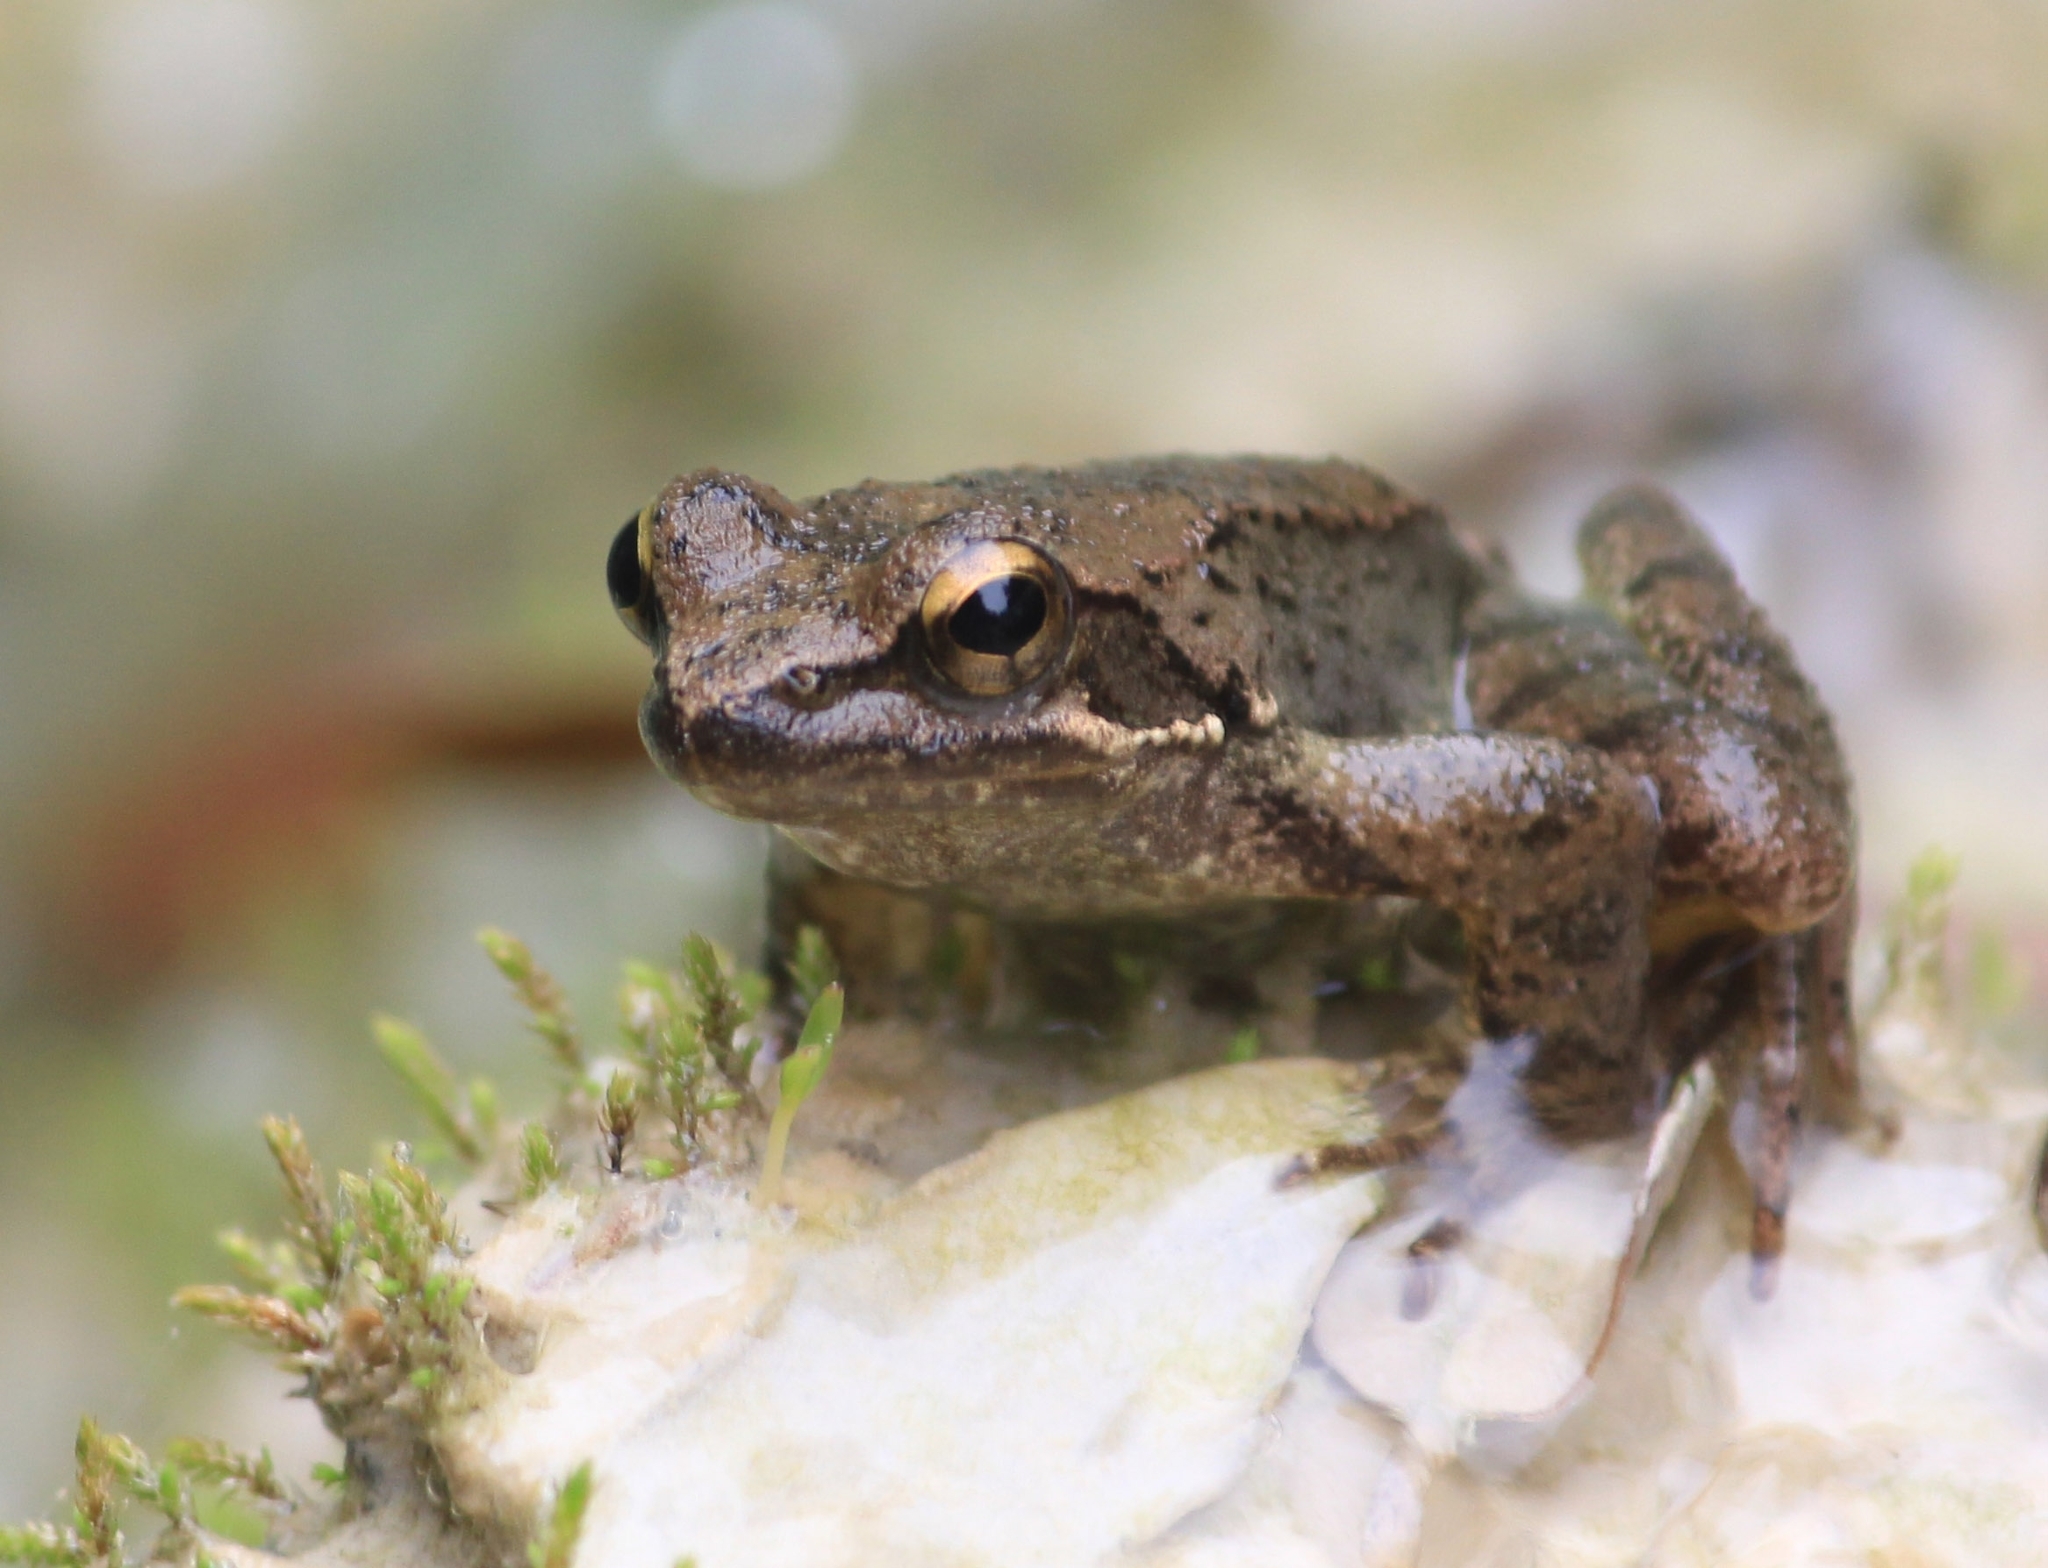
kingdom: Animalia
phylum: Chordata
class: Amphibia
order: Anura
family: Ranidae
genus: Rana
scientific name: Rana graeca
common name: Greek stream frog
